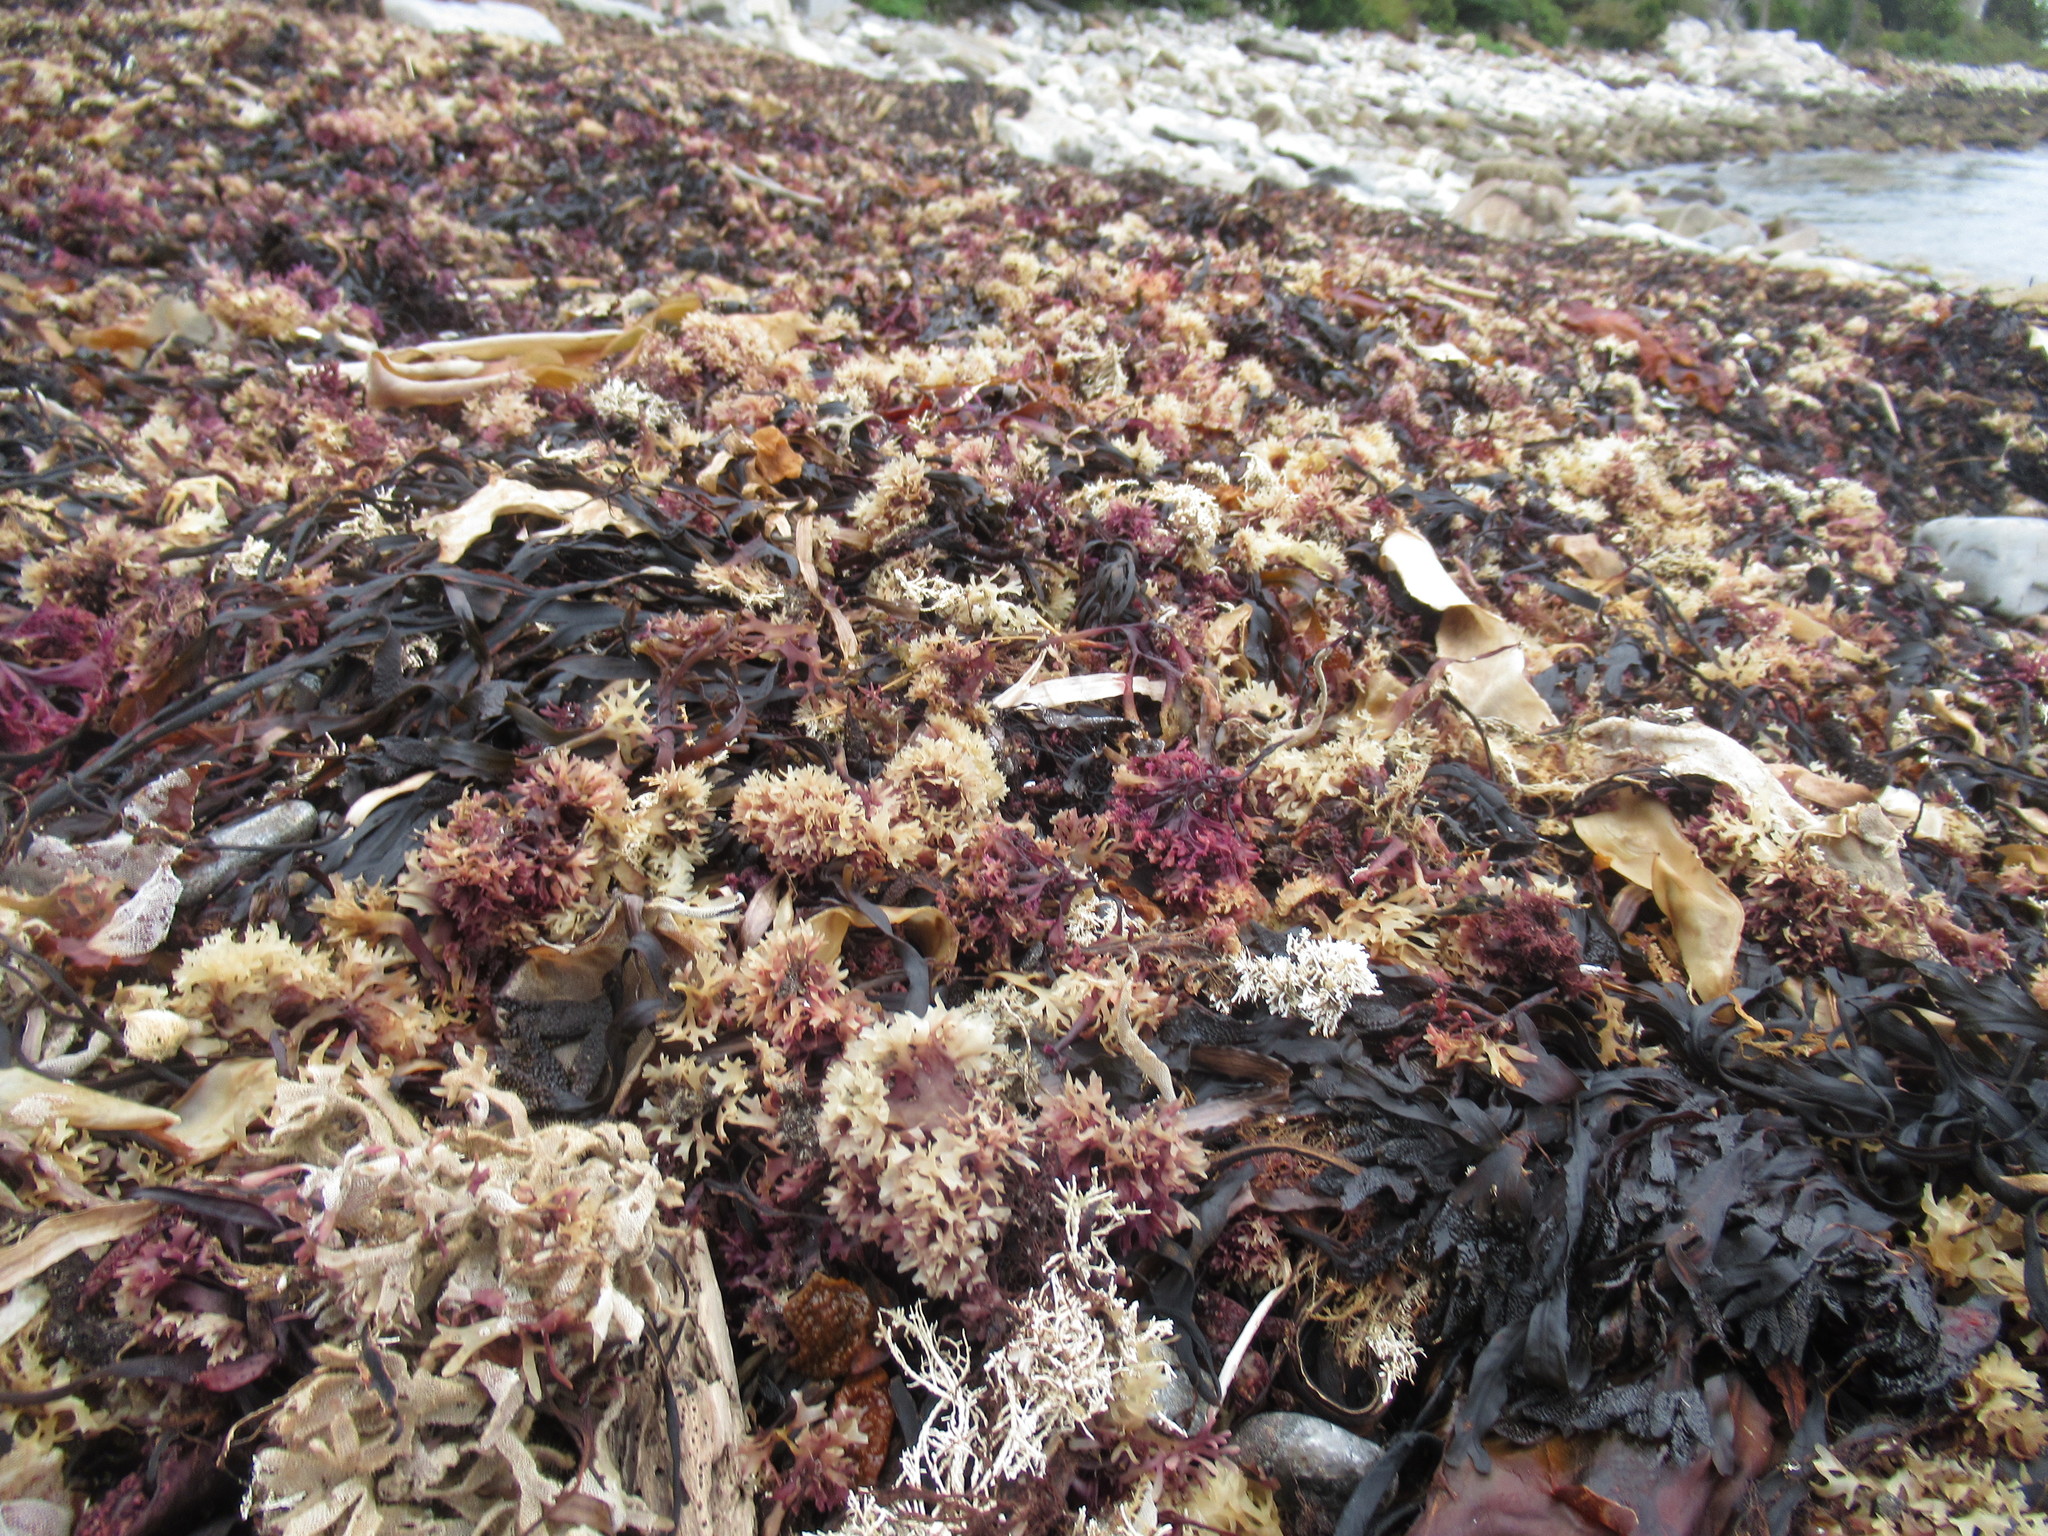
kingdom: Plantae
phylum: Rhodophyta
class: Florideophyceae
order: Gigartinales
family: Gigartinaceae
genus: Chondrus
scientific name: Chondrus crispus
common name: Carrageen
